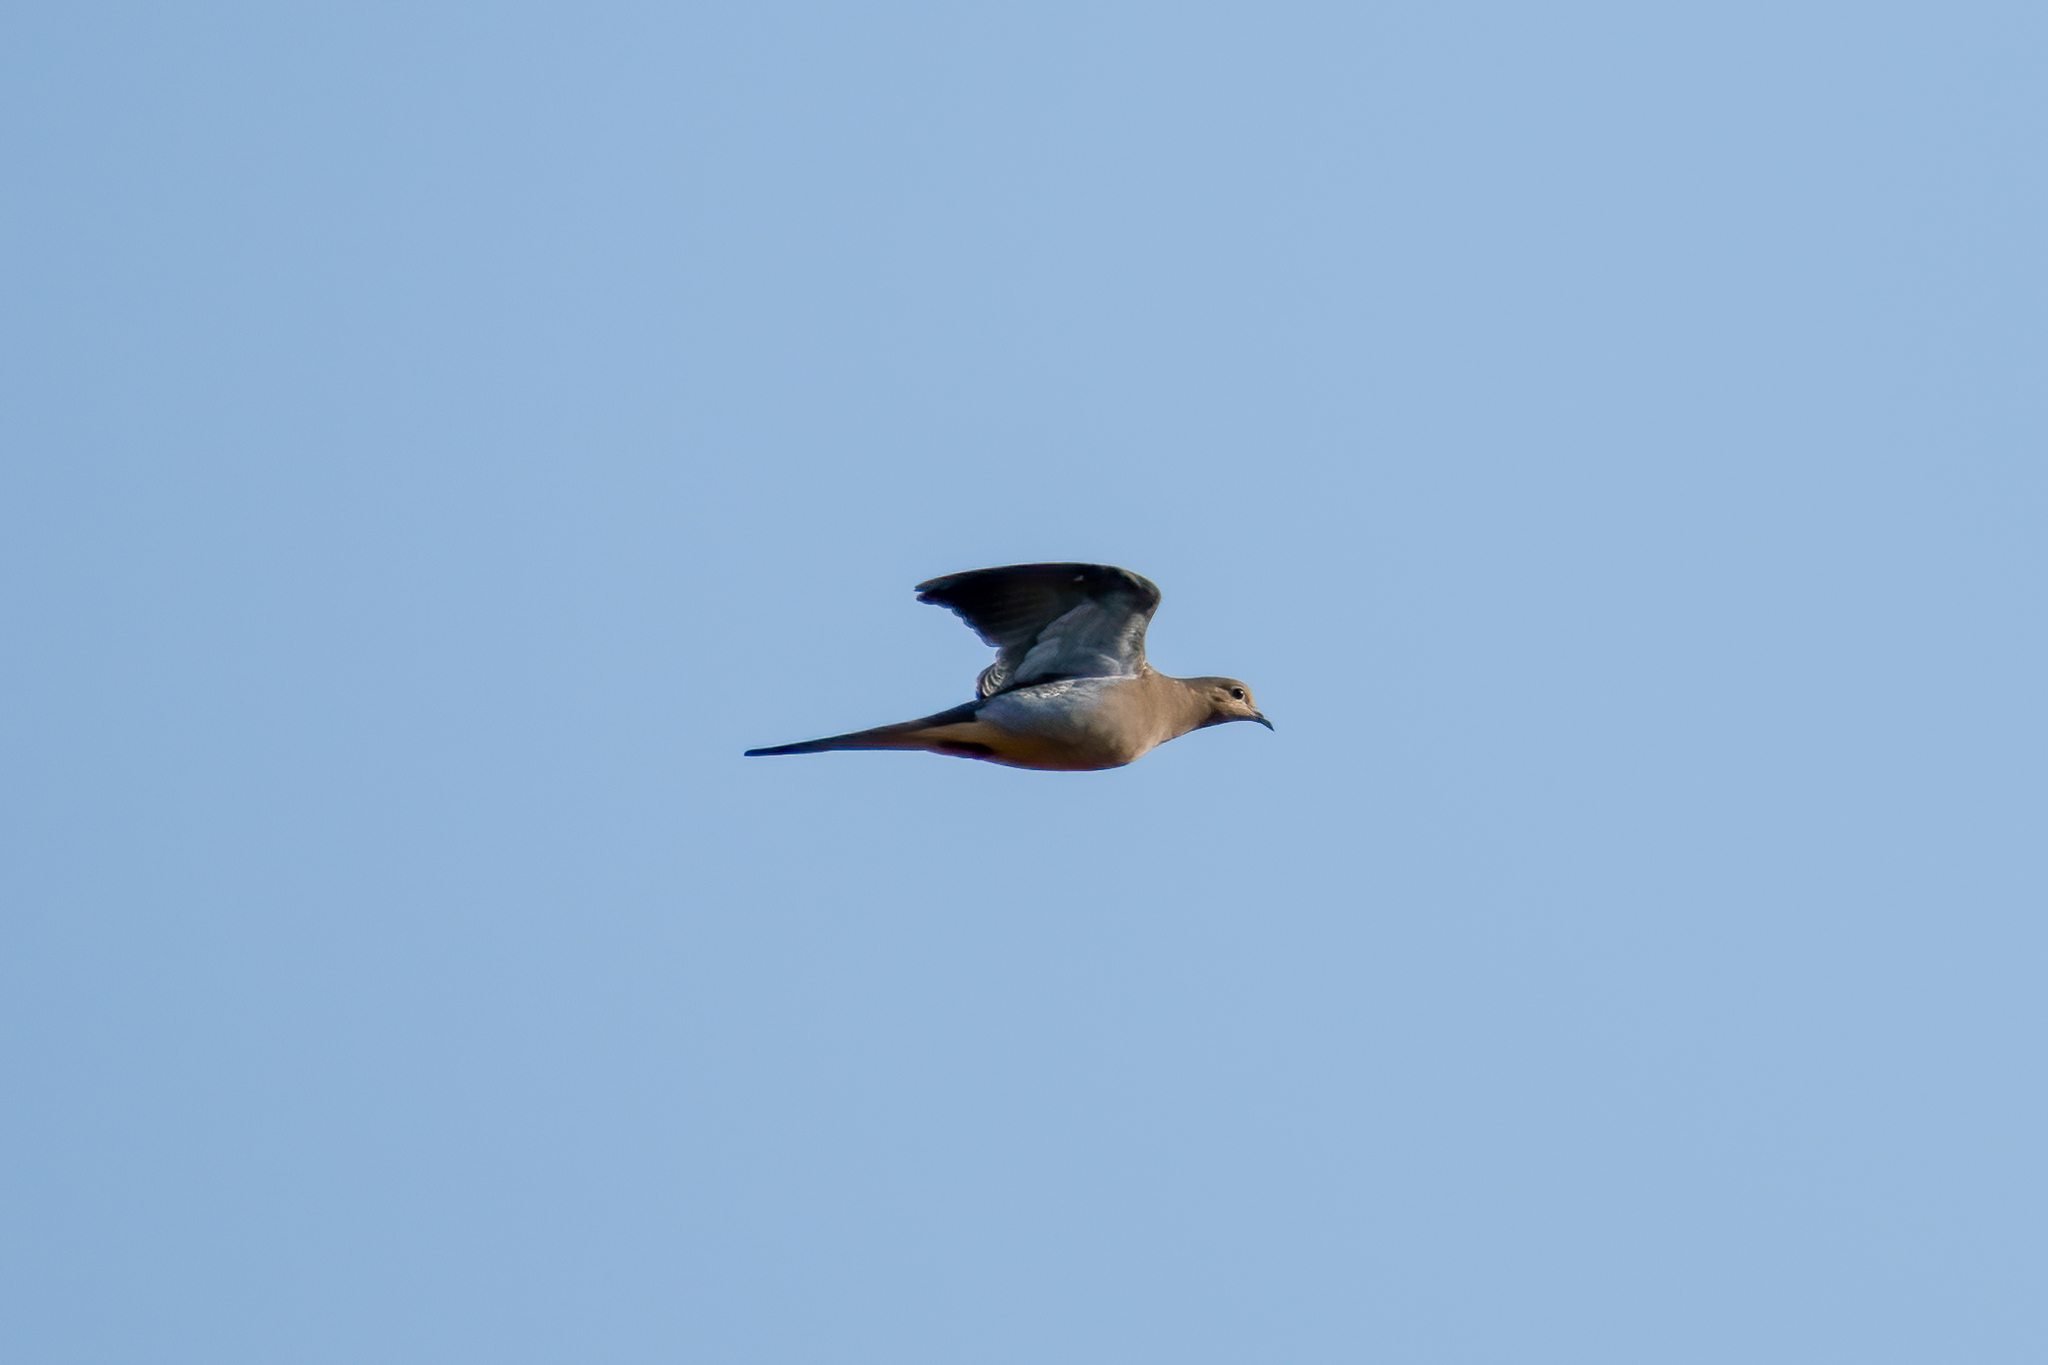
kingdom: Animalia
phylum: Chordata
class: Aves
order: Columbiformes
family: Columbidae
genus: Zenaida
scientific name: Zenaida macroura
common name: Mourning dove
